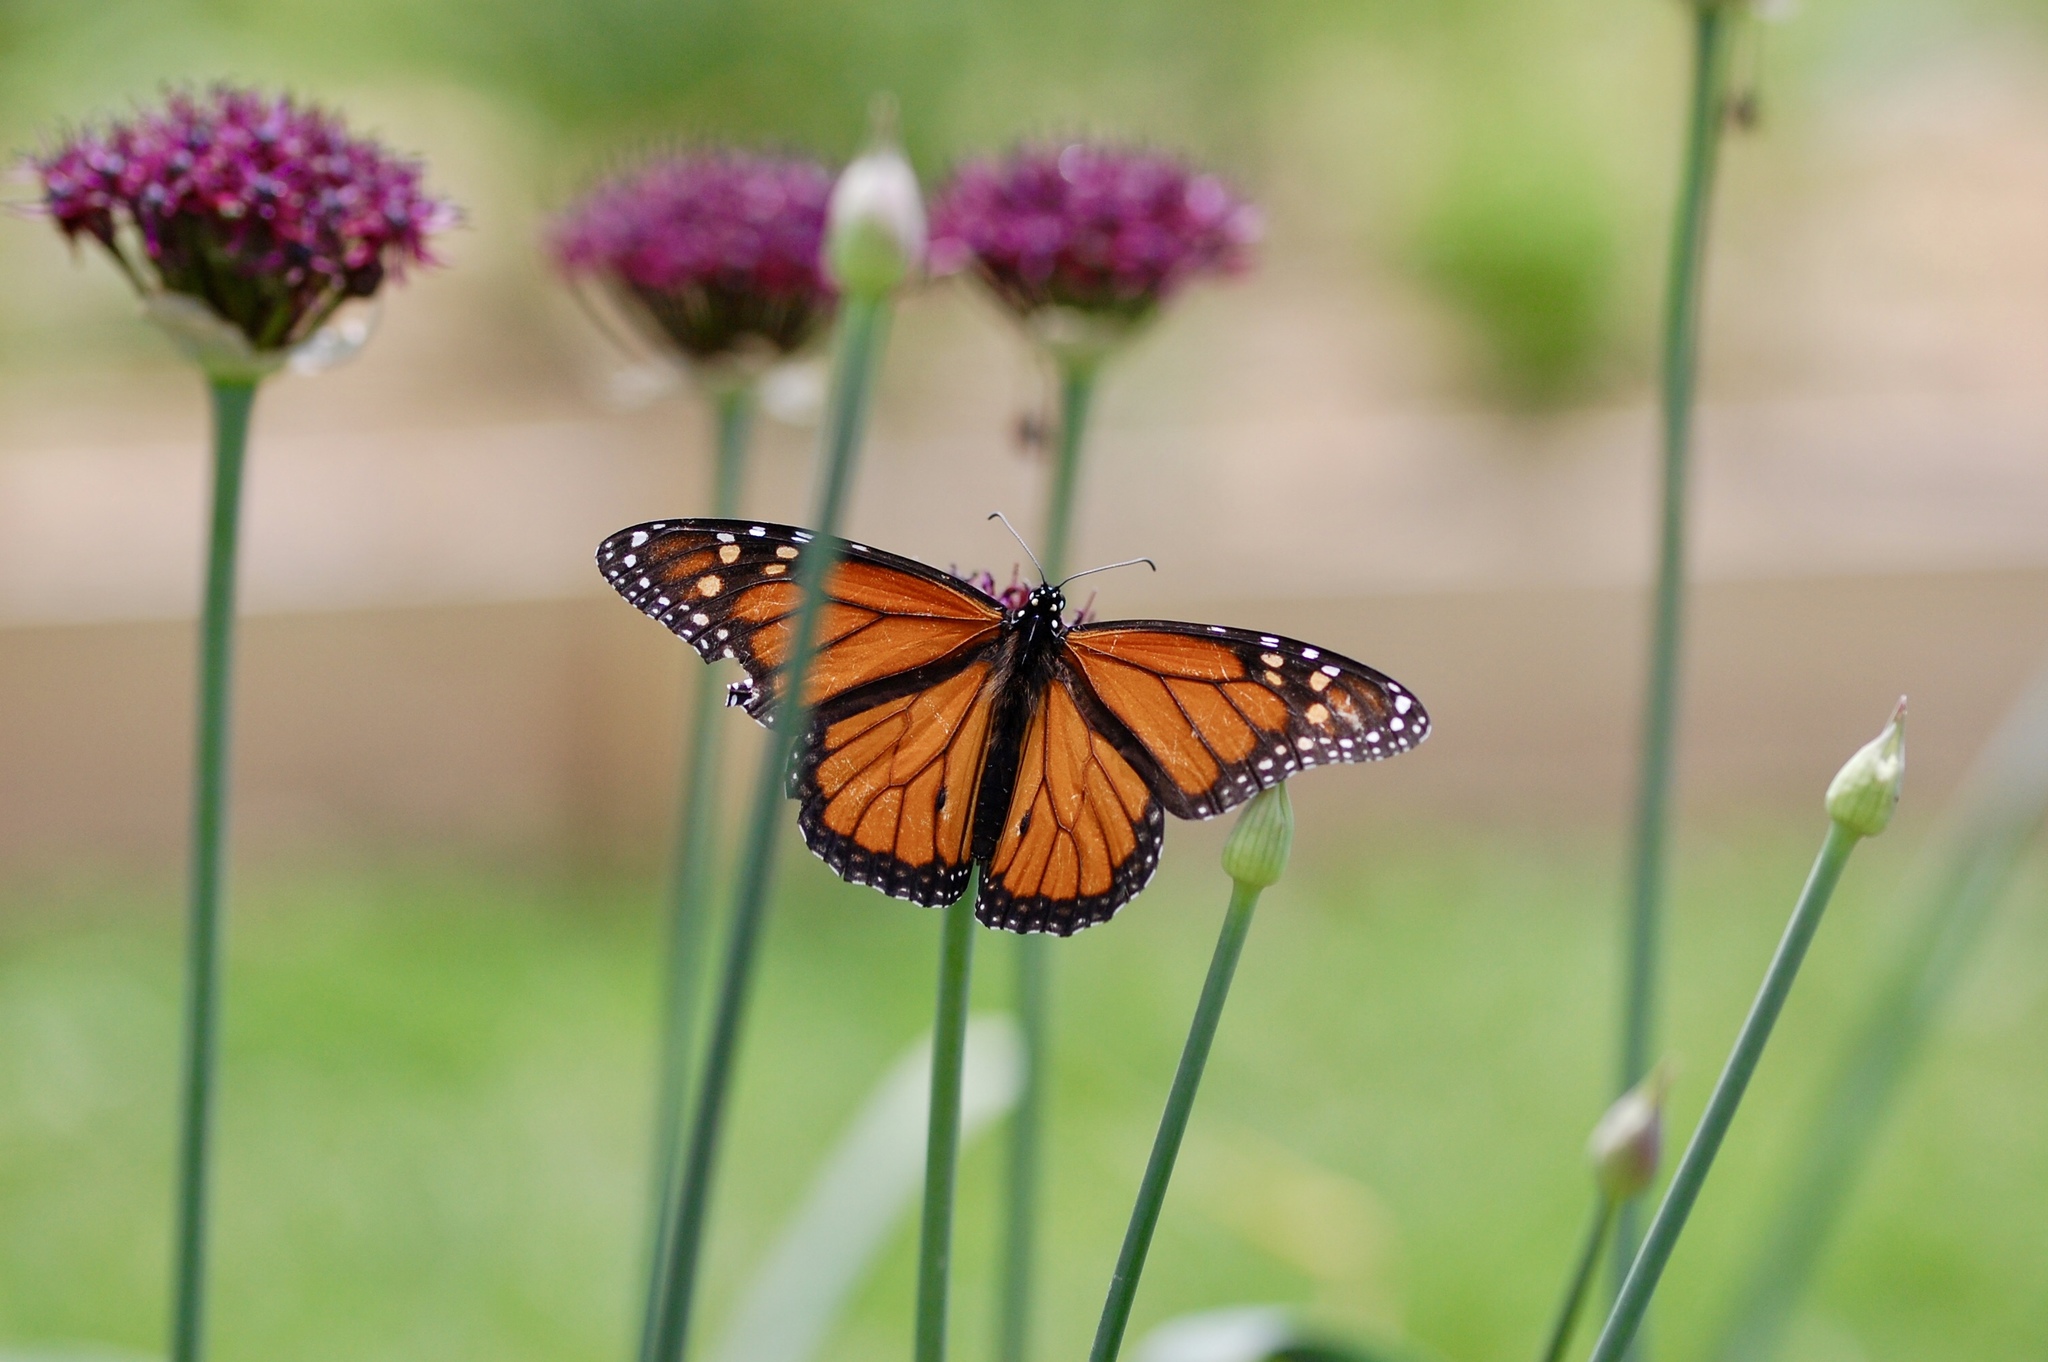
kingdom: Animalia
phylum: Arthropoda
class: Insecta
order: Lepidoptera
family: Nymphalidae
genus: Danaus
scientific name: Danaus plexippus
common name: Monarch
